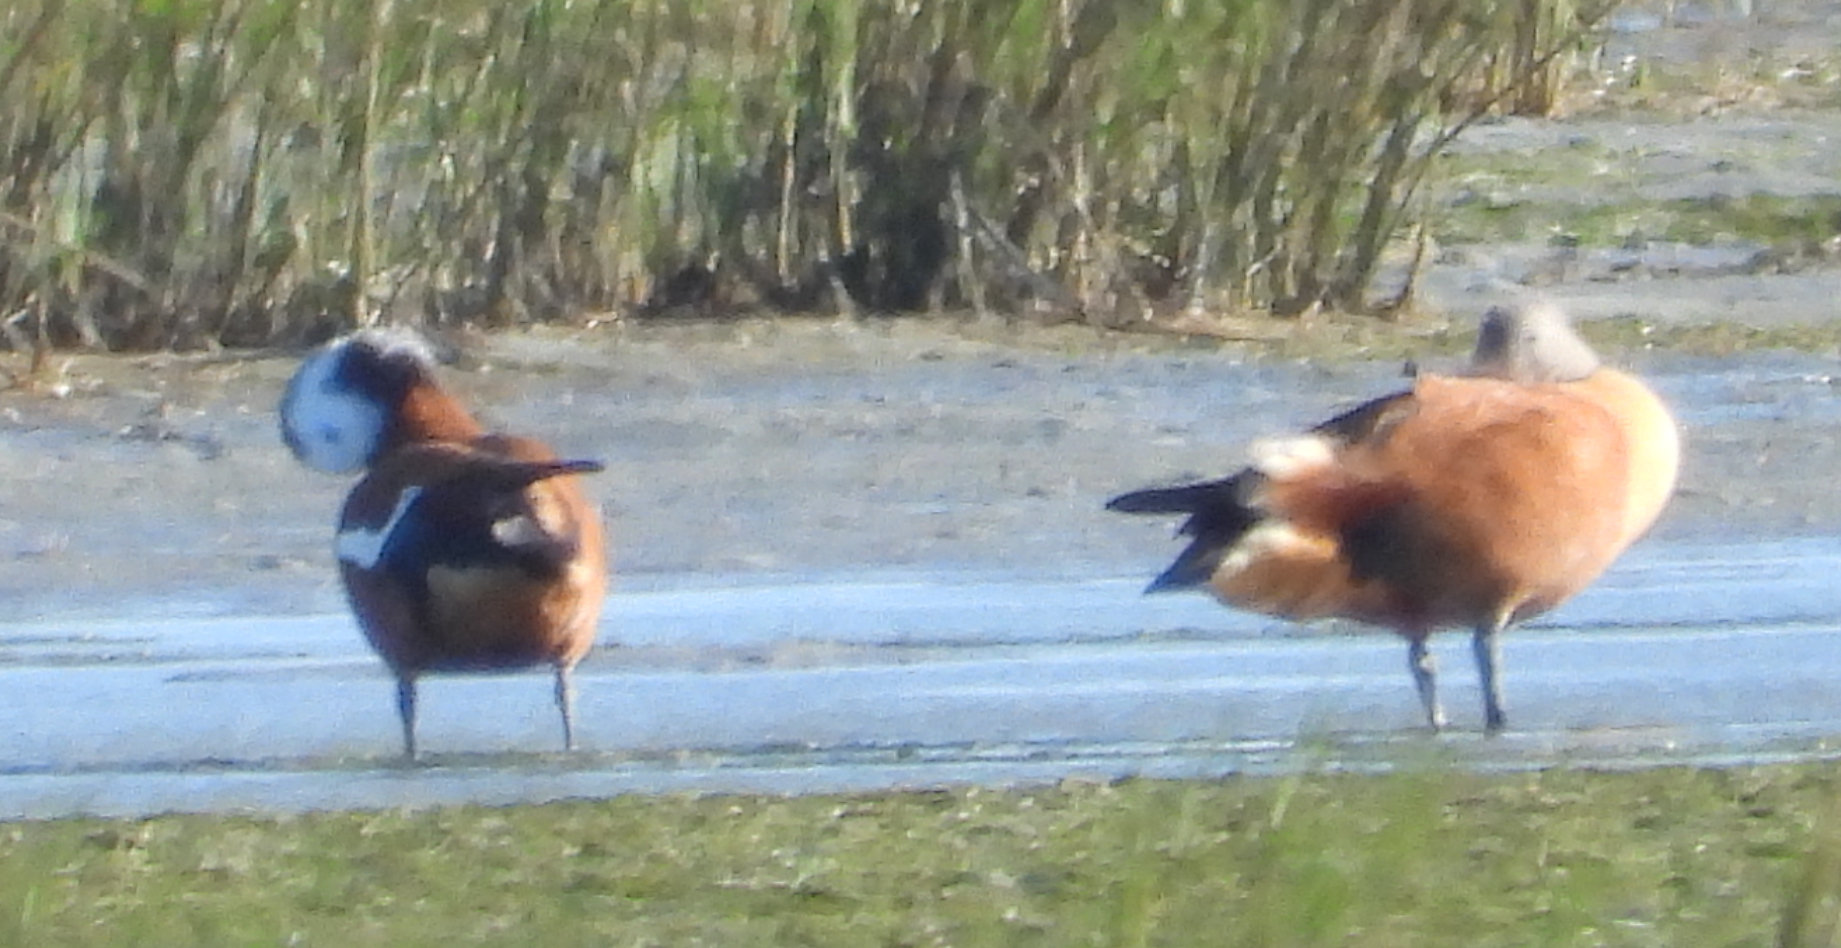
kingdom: Animalia
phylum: Chordata
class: Aves
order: Anseriformes
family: Anatidae
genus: Tadorna
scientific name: Tadorna cana
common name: South african shelduck
